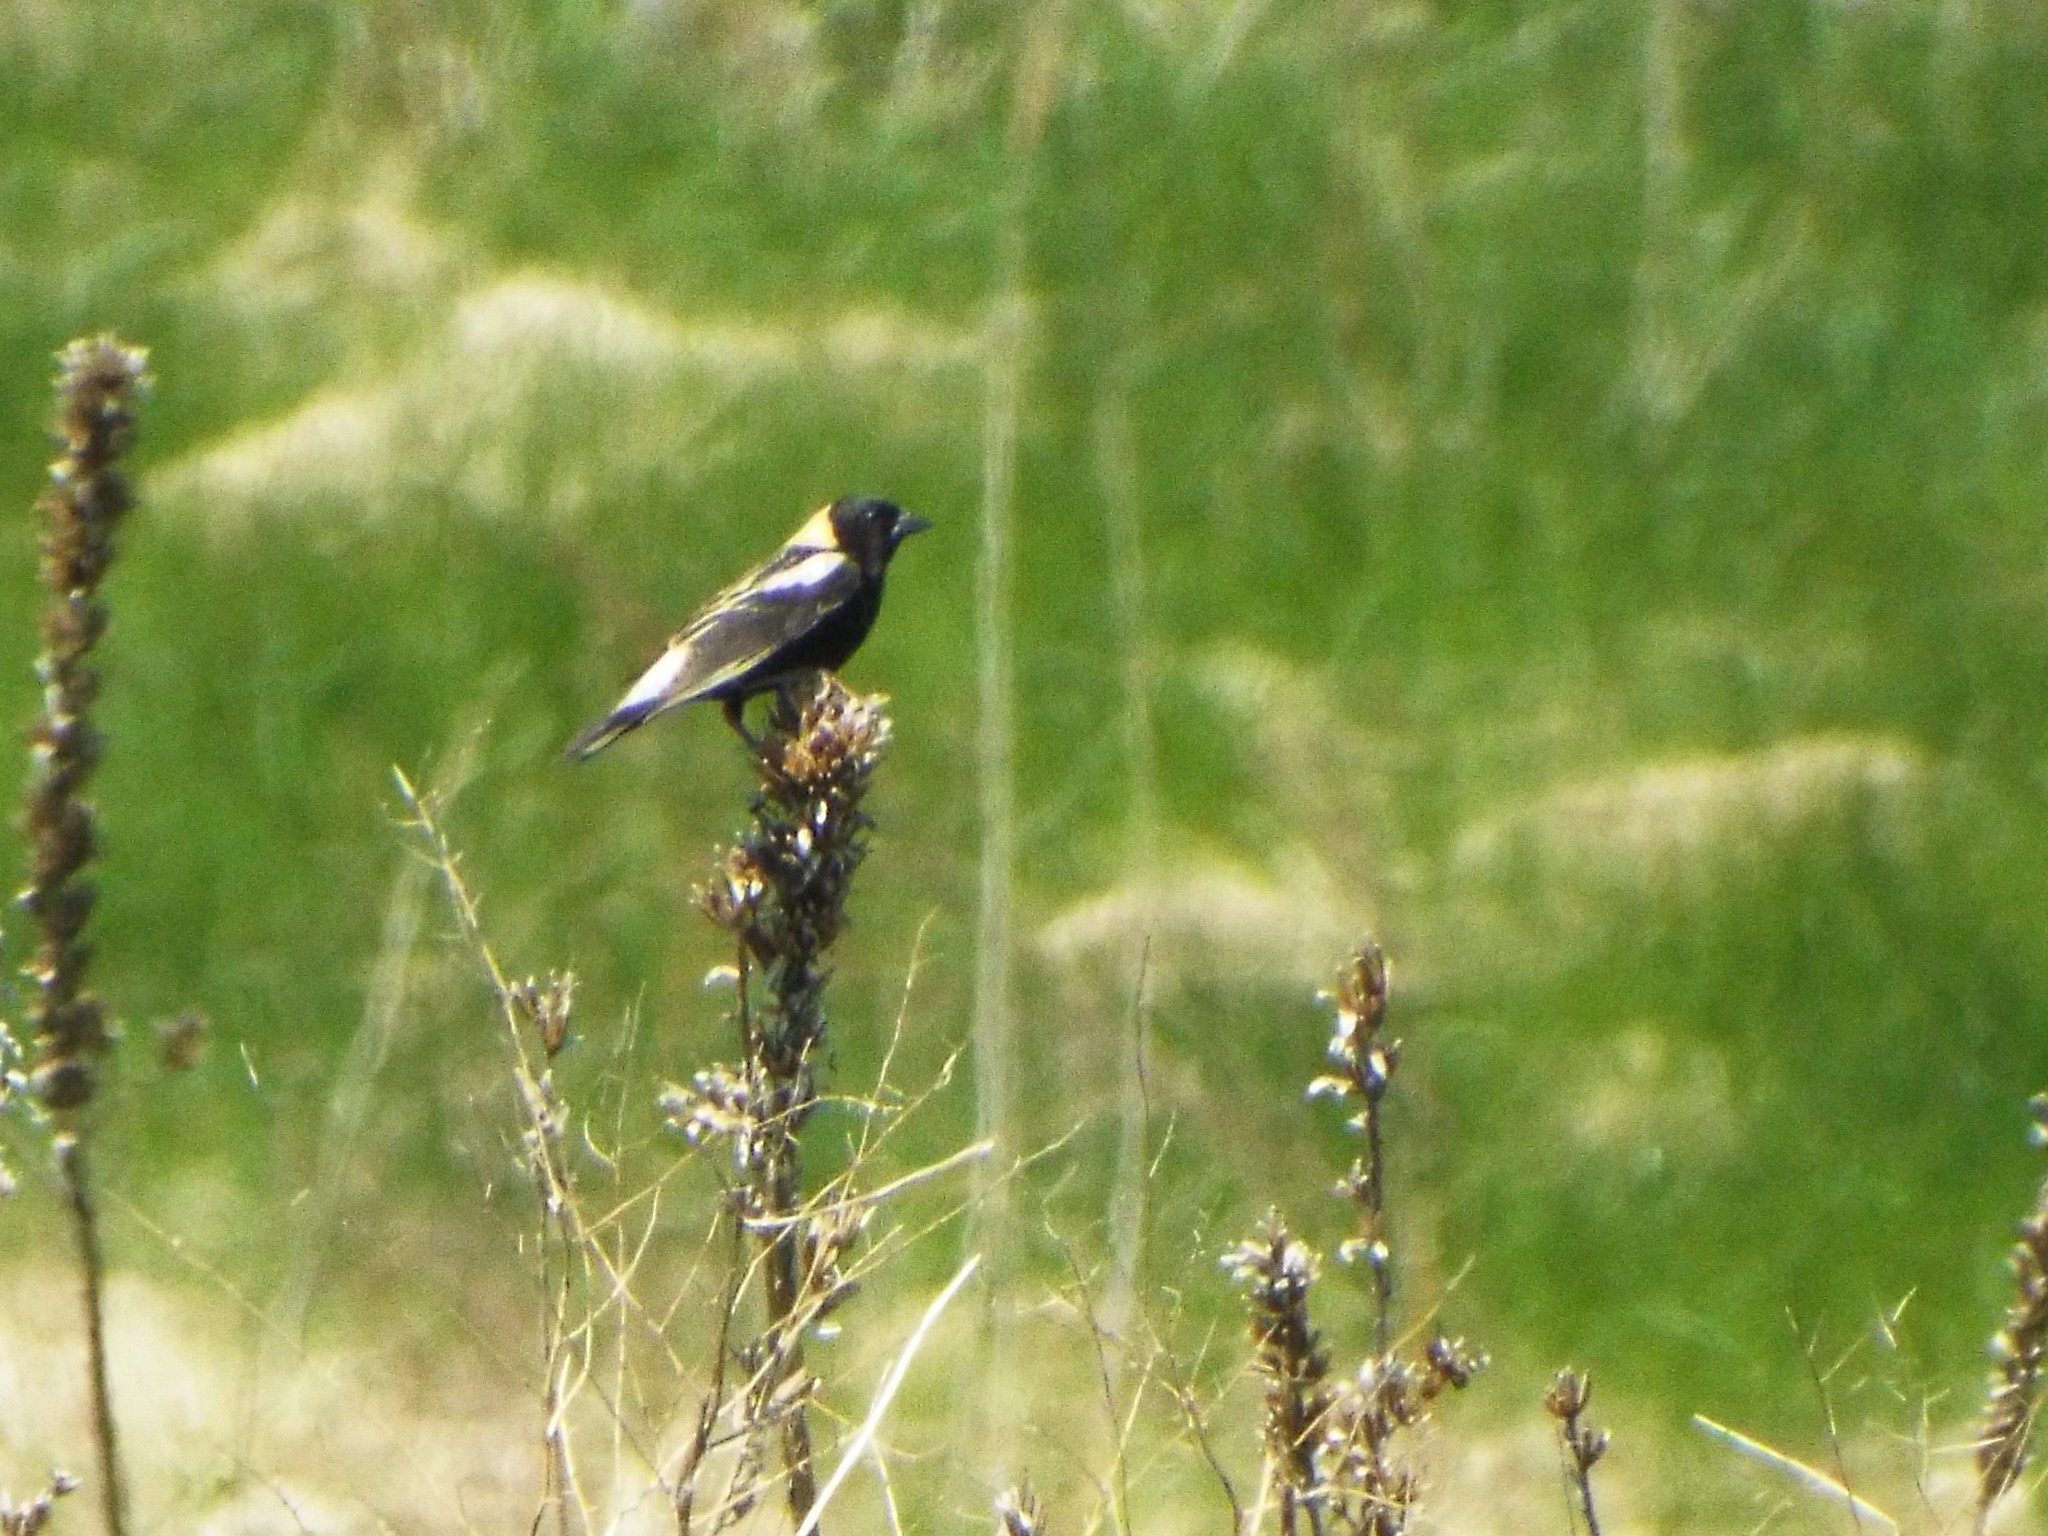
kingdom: Animalia
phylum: Chordata
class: Aves
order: Passeriformes
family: Icteridae
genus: Dolichonyx
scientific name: Dolichonyx oryzivorus
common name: Bobolink
